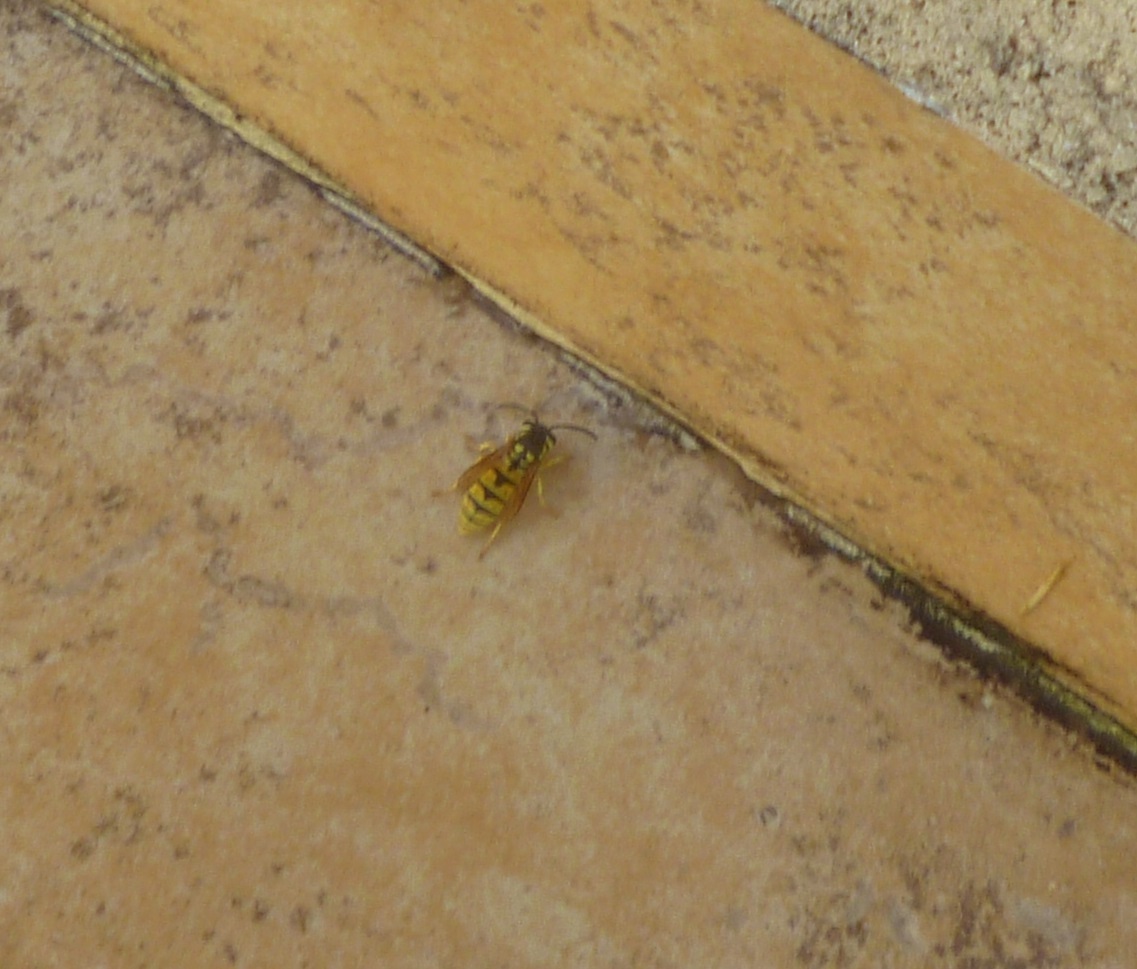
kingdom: Animalia
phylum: Arthropoda
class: Insecta
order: Hymenoptera
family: Vespidae
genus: Vespula
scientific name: Vespula germanica
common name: German wasp
